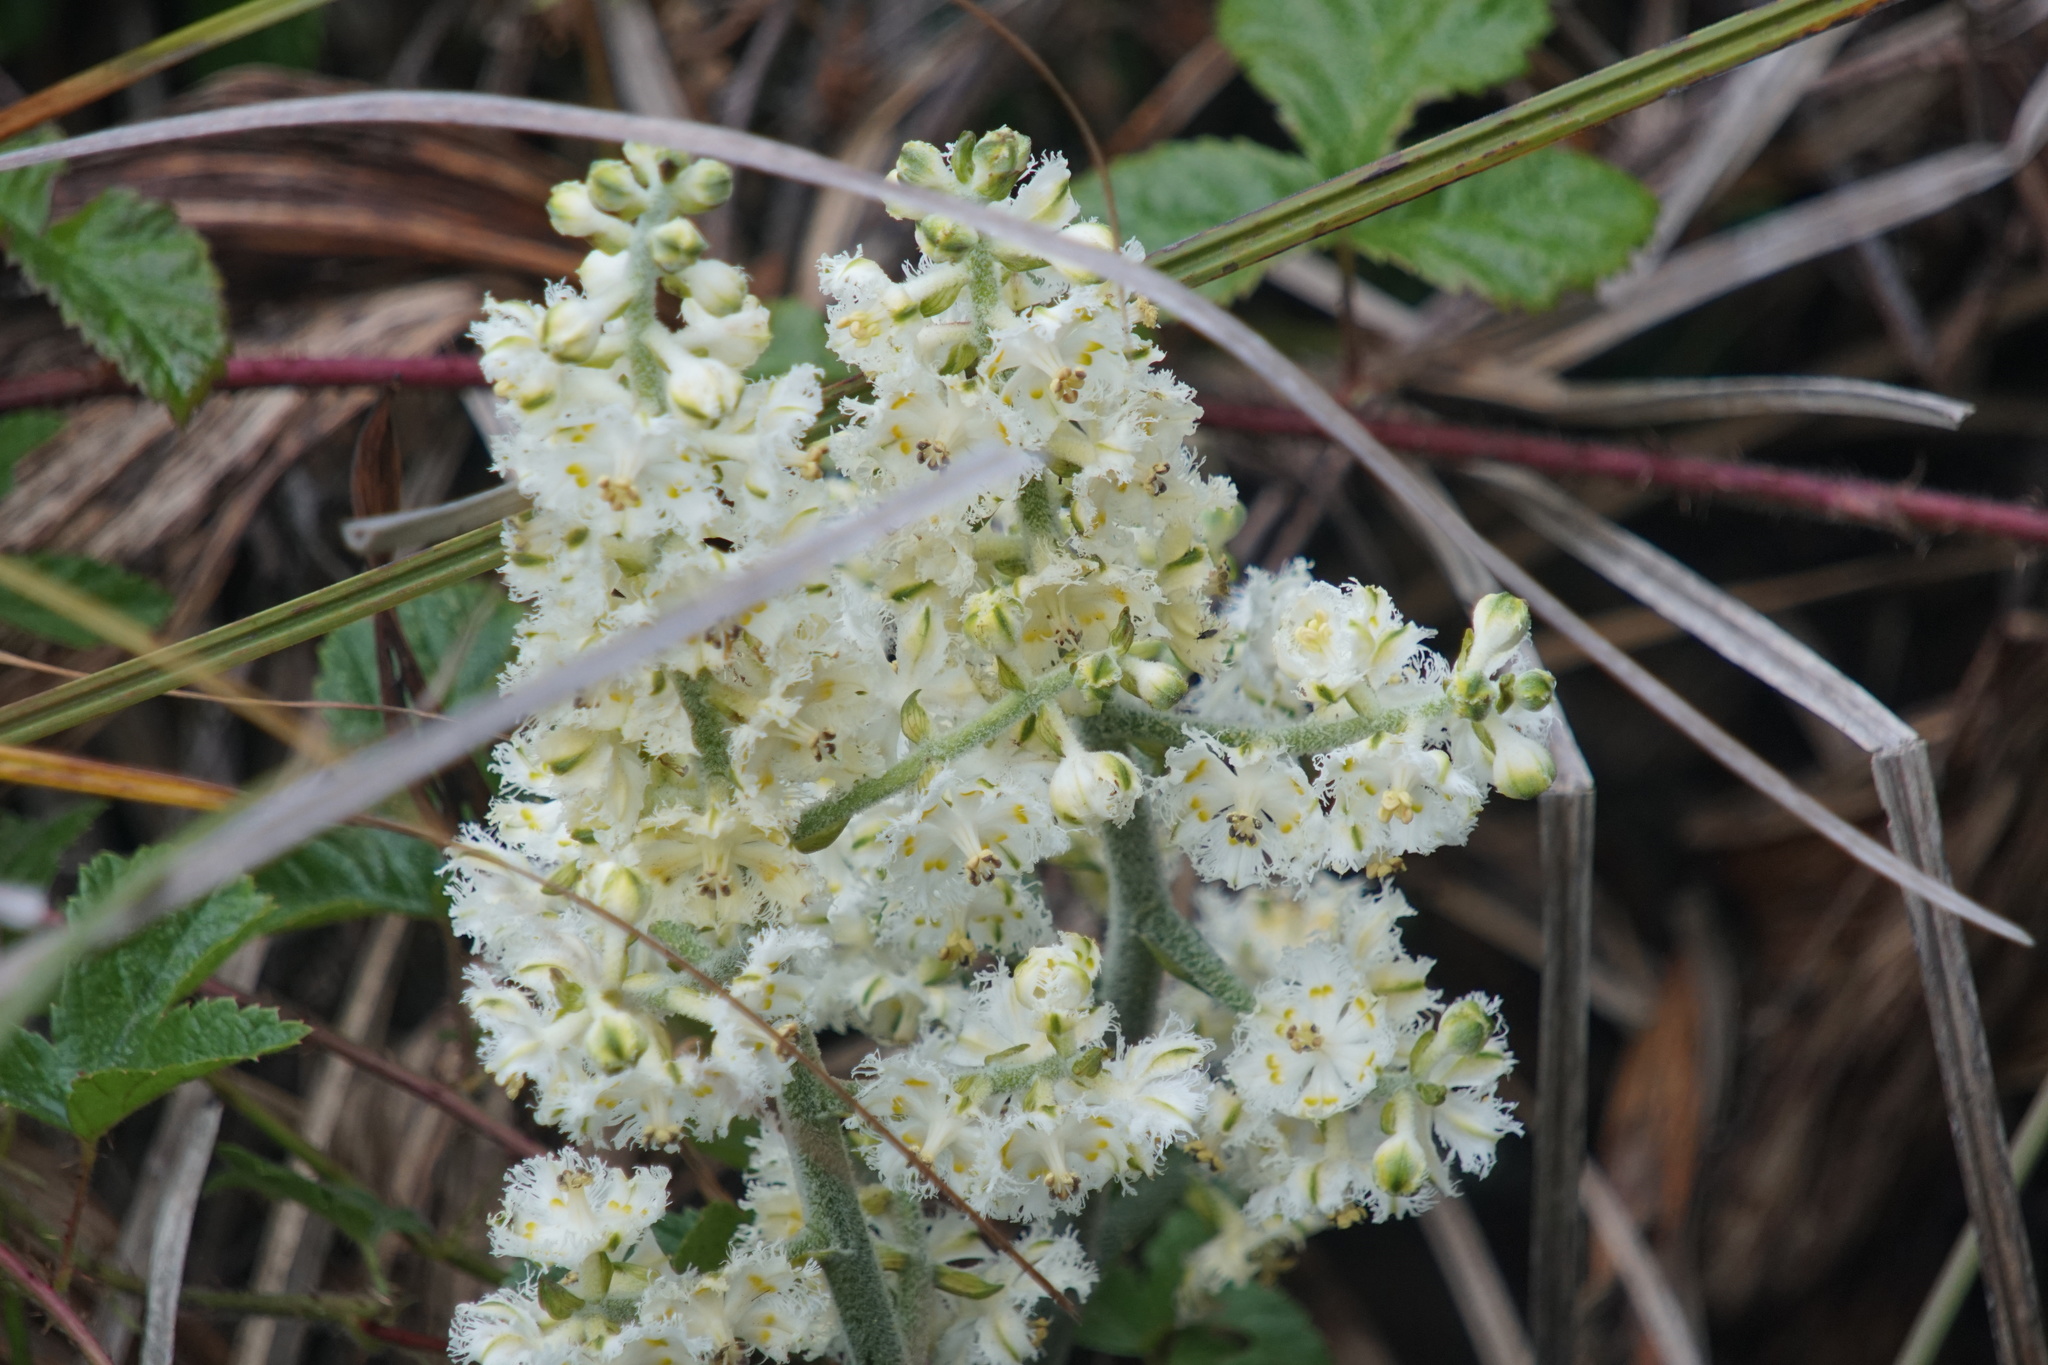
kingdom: Plantae
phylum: Tracheophyta
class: Liliopsida
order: Liliales
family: Melanthiaceae
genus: Veratrum
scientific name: Veratrum fimbriatum
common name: Fringe false hellobore
